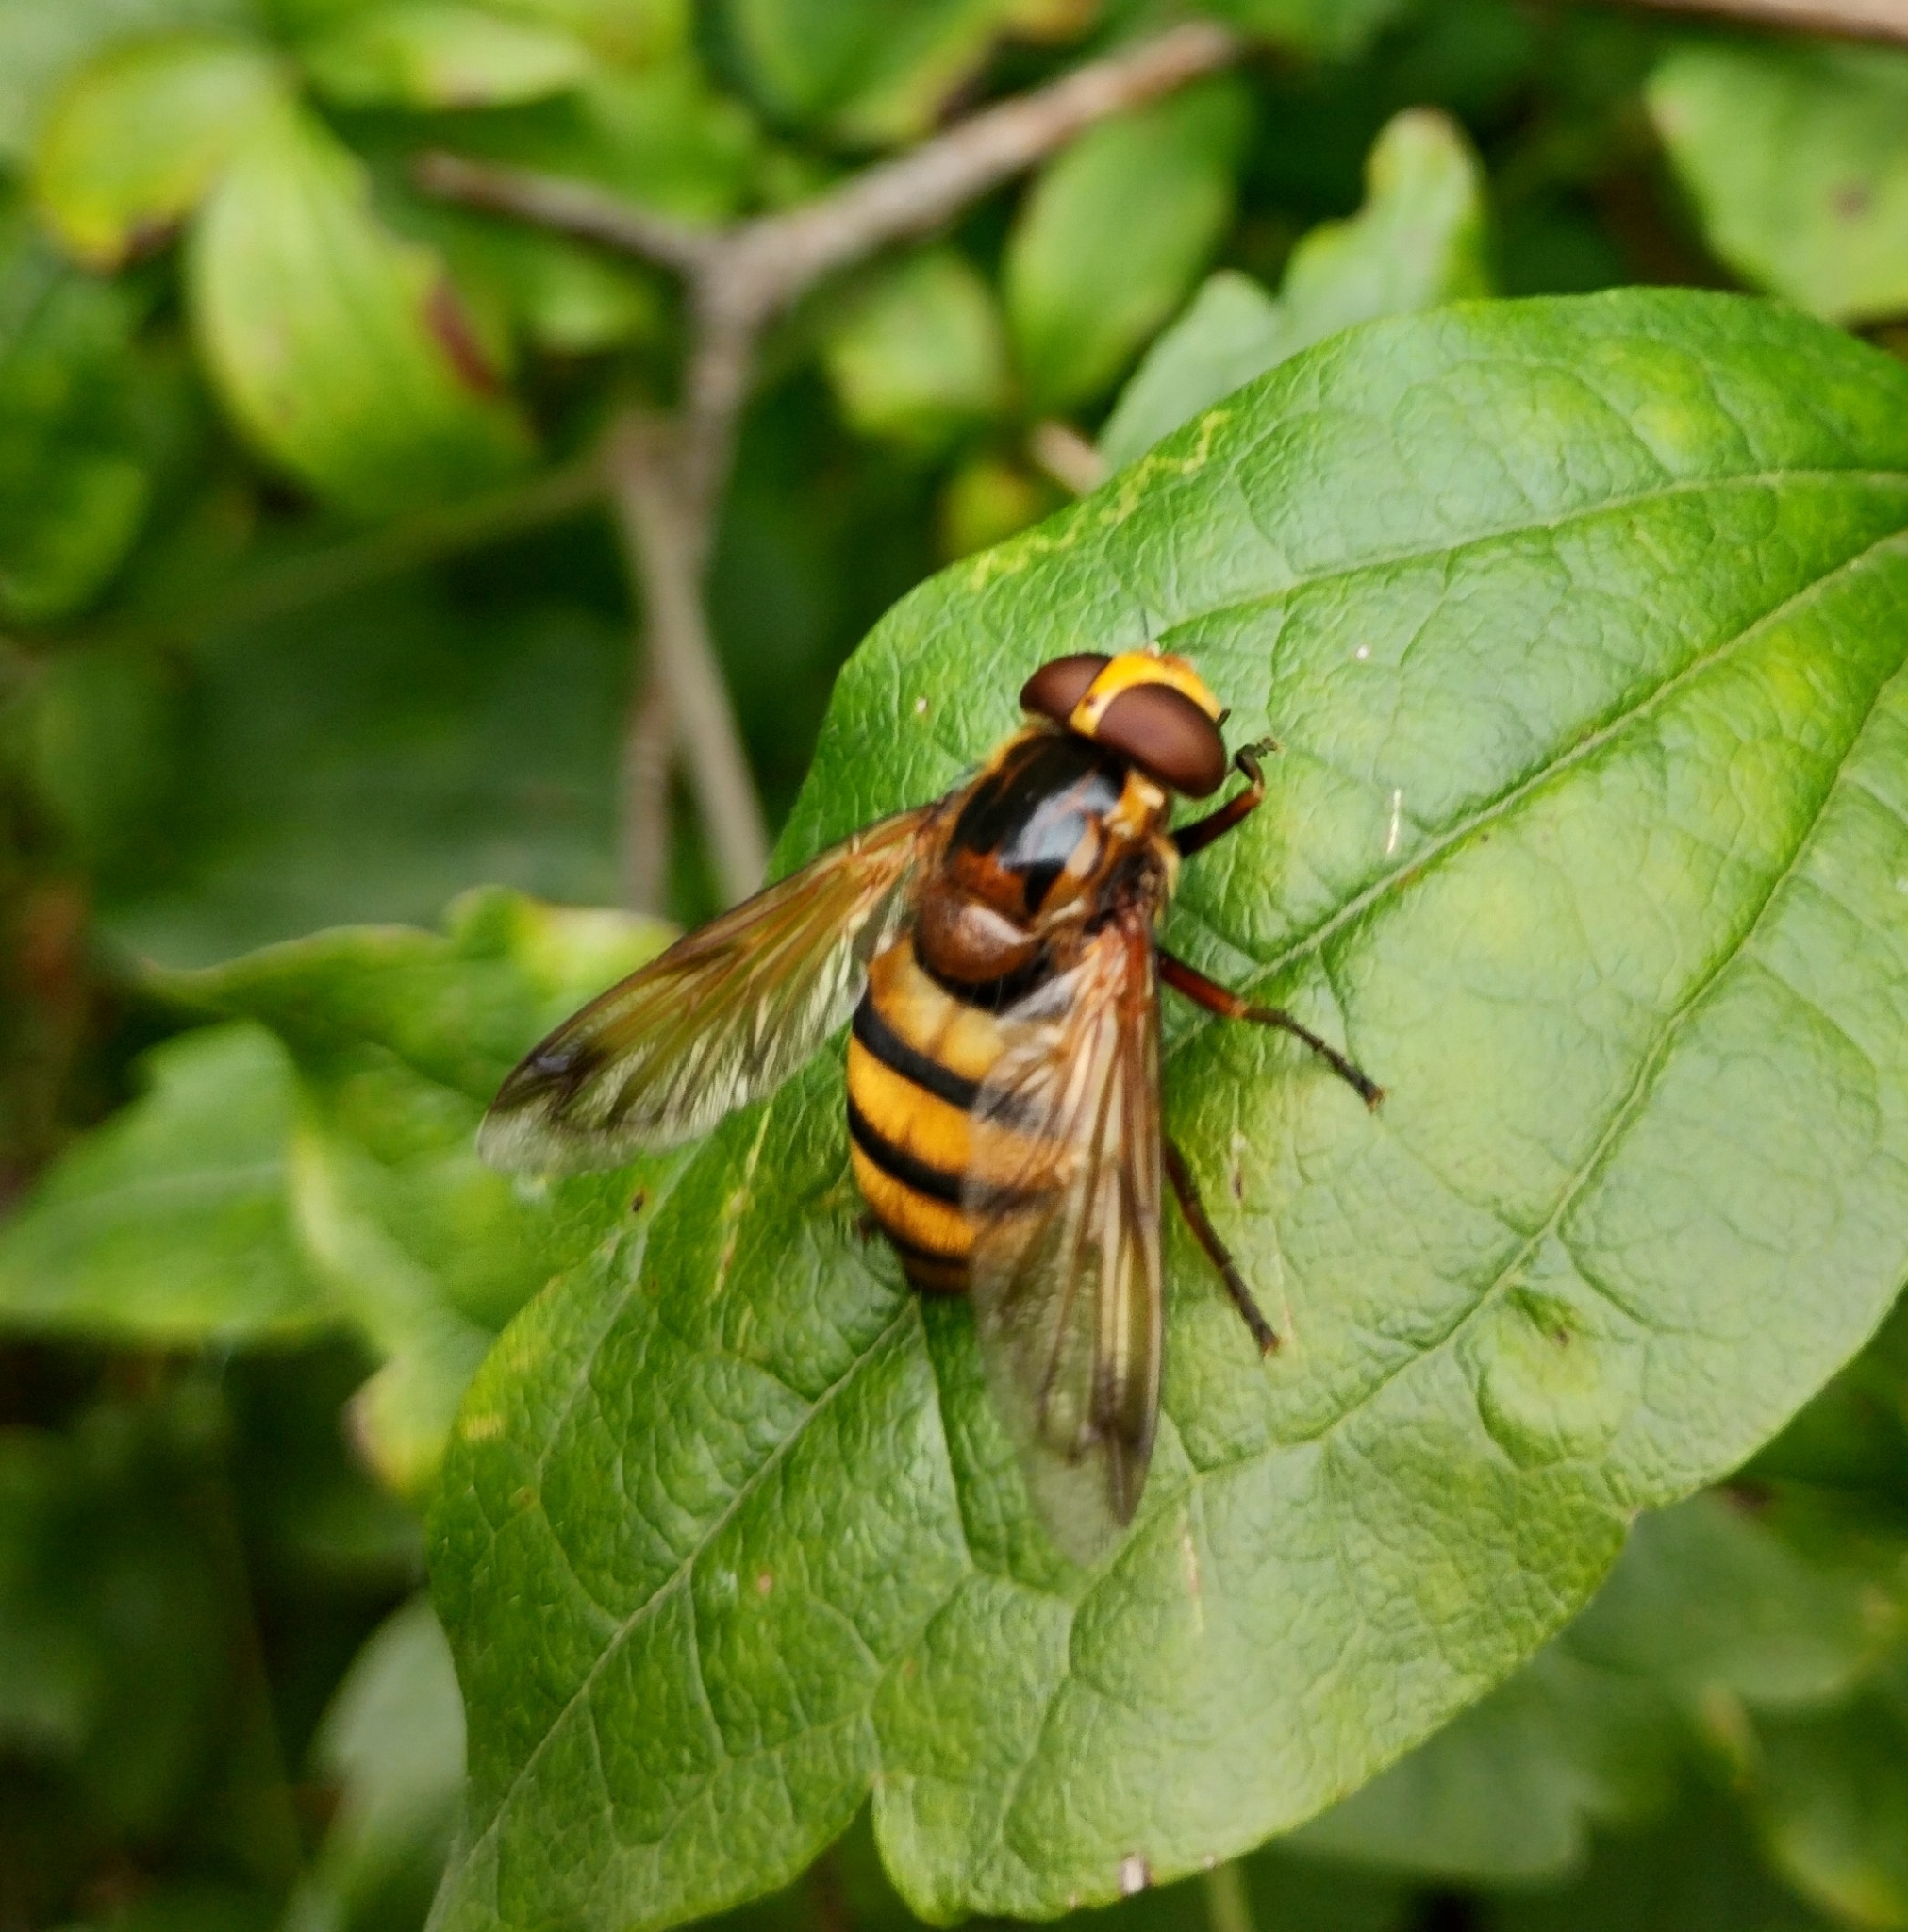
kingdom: Animalia
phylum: Arthropoda
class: Insecta
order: Diptera
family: Syrphidae
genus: Volucella
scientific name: Volucella inanis
